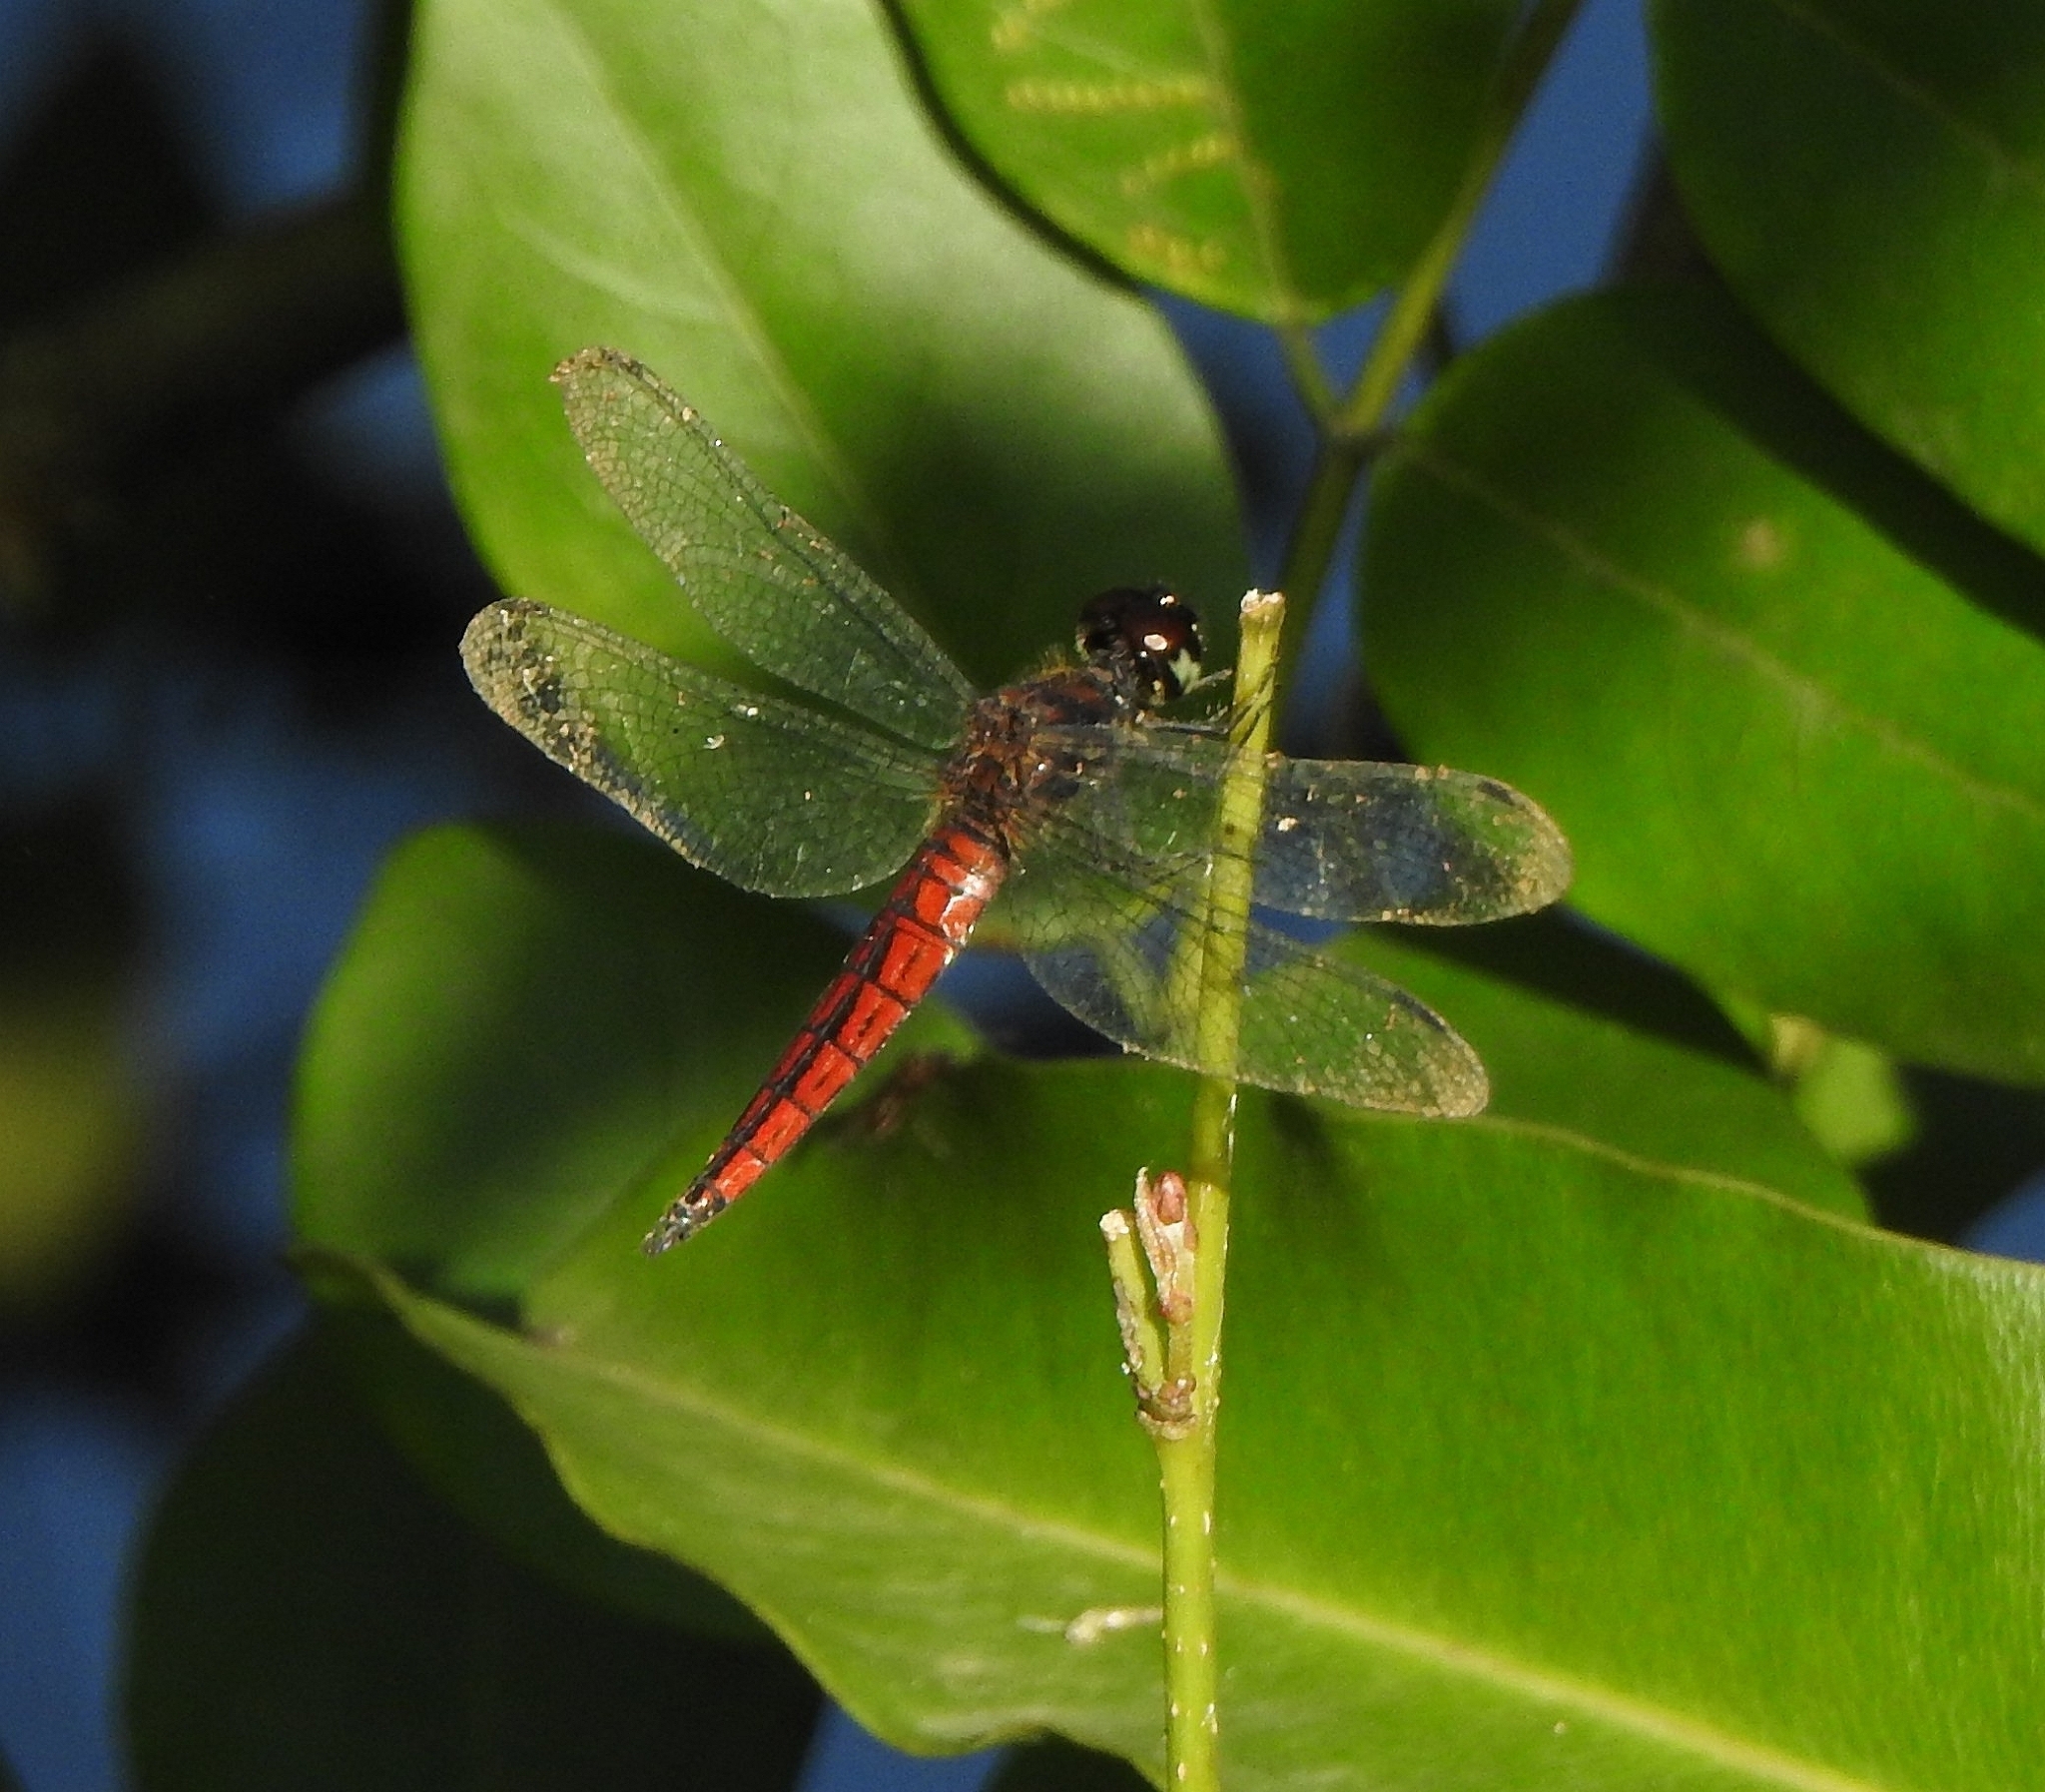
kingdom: Animalia
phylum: Arthropoda
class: Insecta
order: Odonata
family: Libellulidae
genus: Lyriothemis
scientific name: Lyriothemis acigastra
